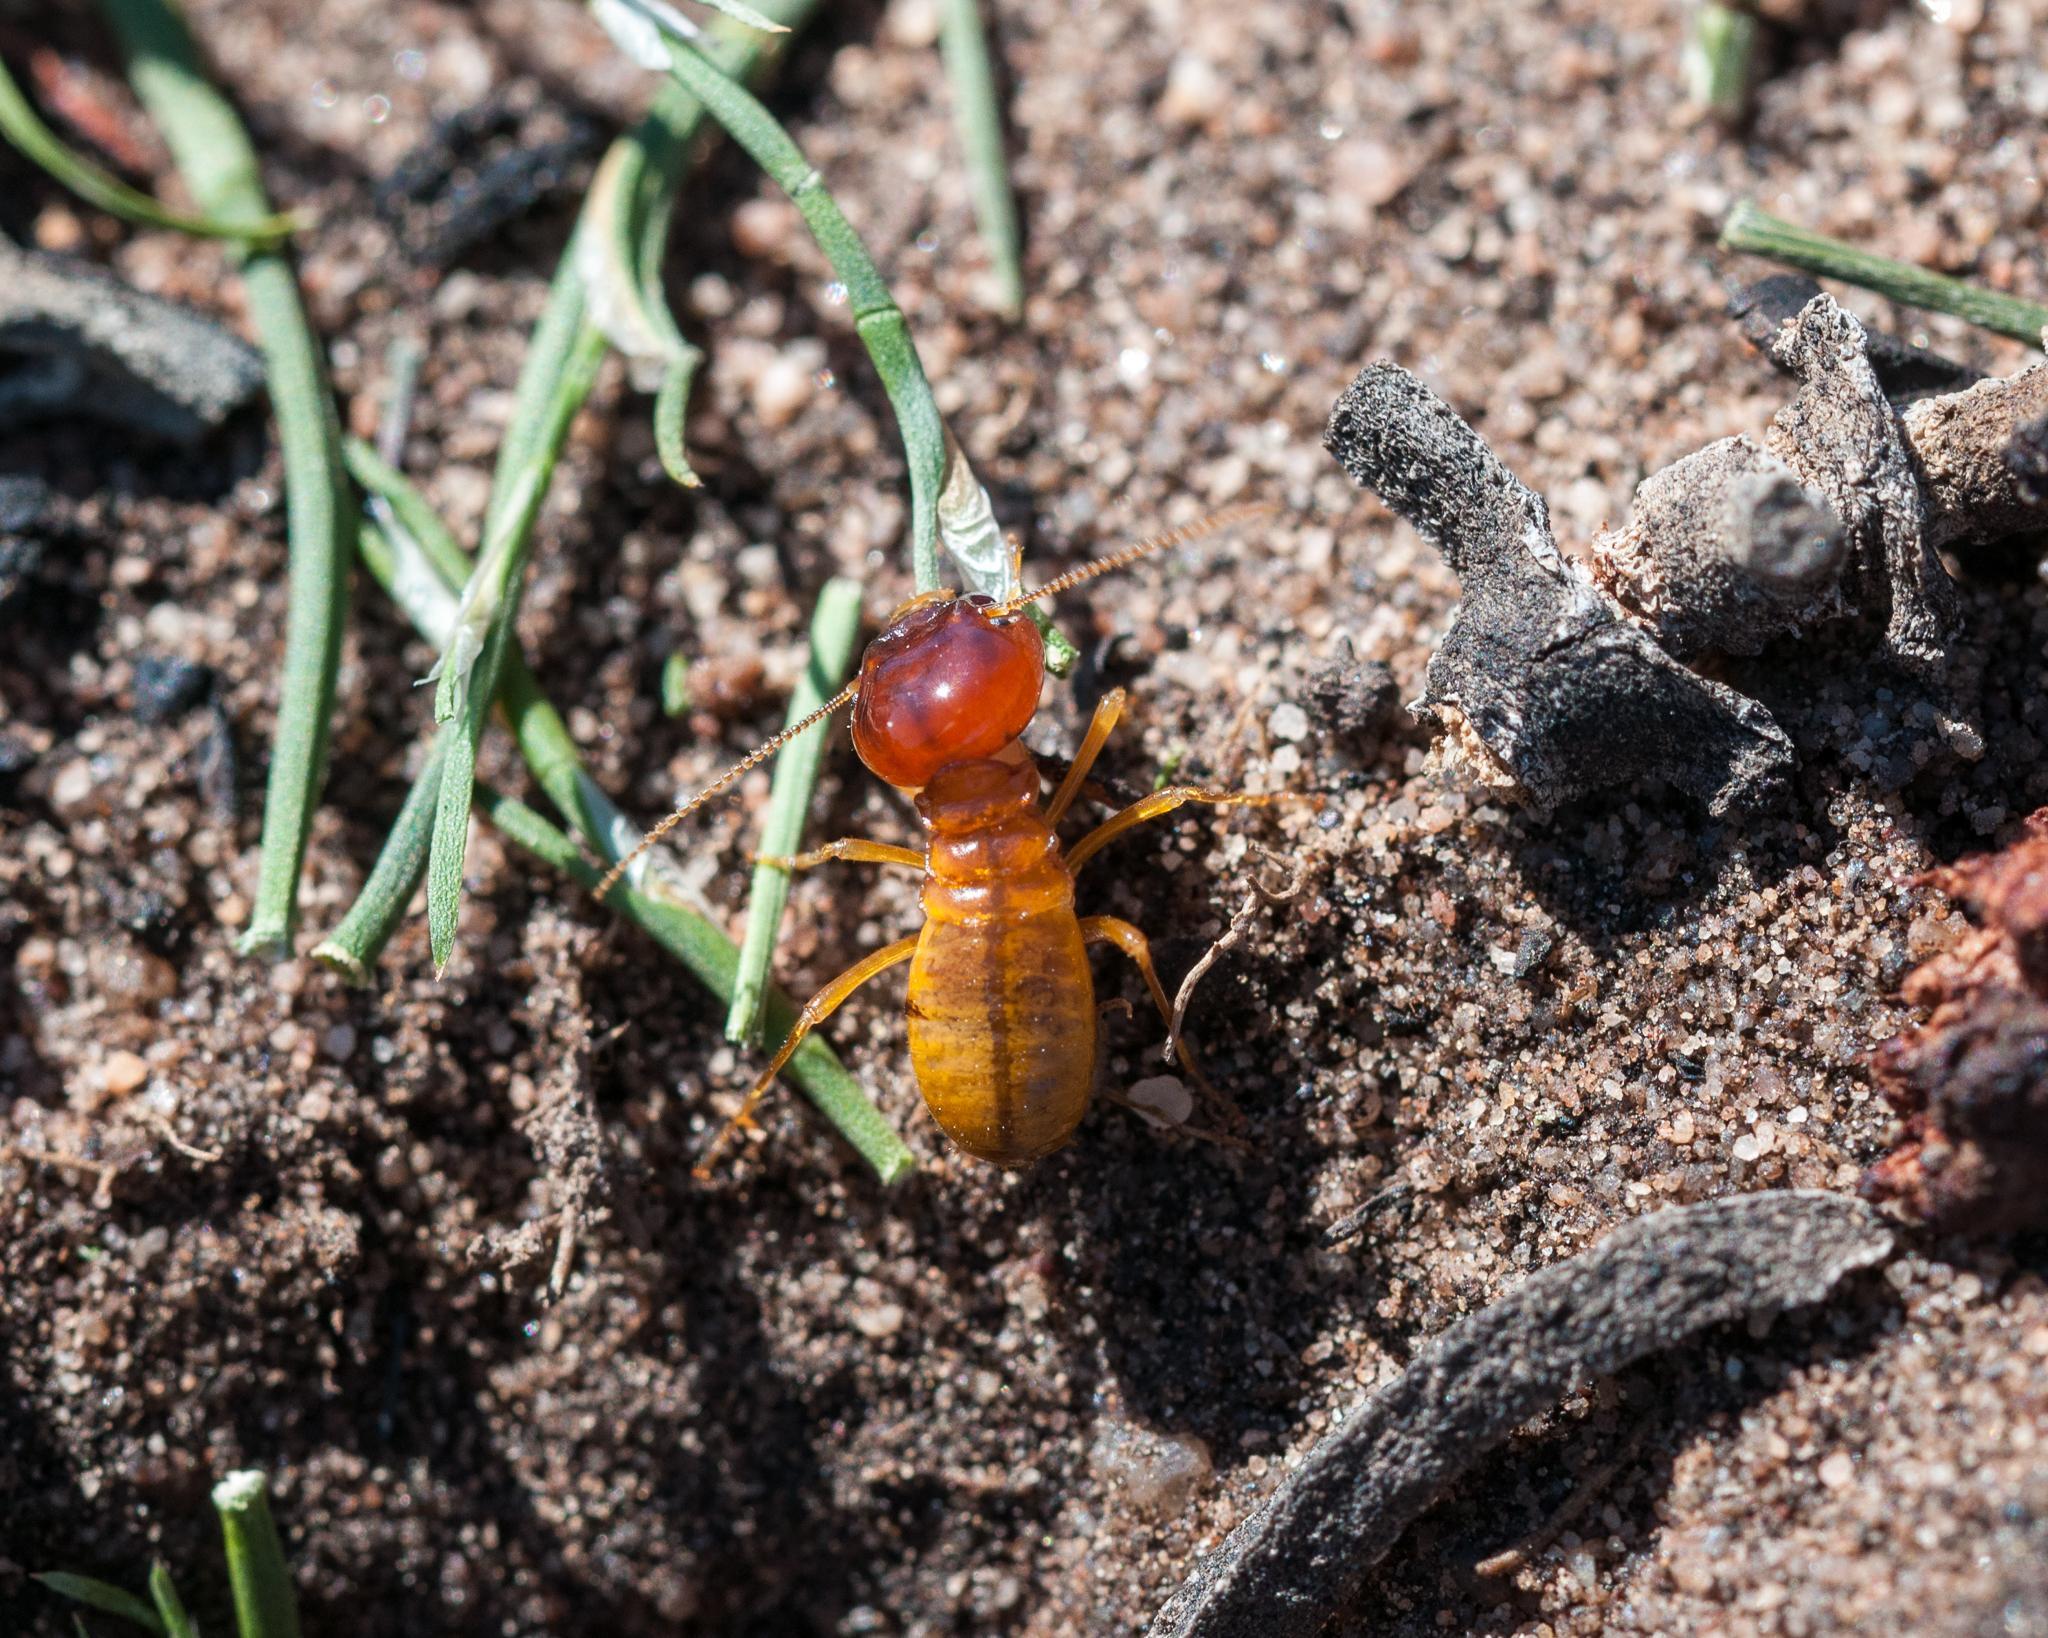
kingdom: Animalia
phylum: Arthropoda
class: Insecta
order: Blattodea
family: Hodotermitidae
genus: Microhodotermes
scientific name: Microhodotermes viator
